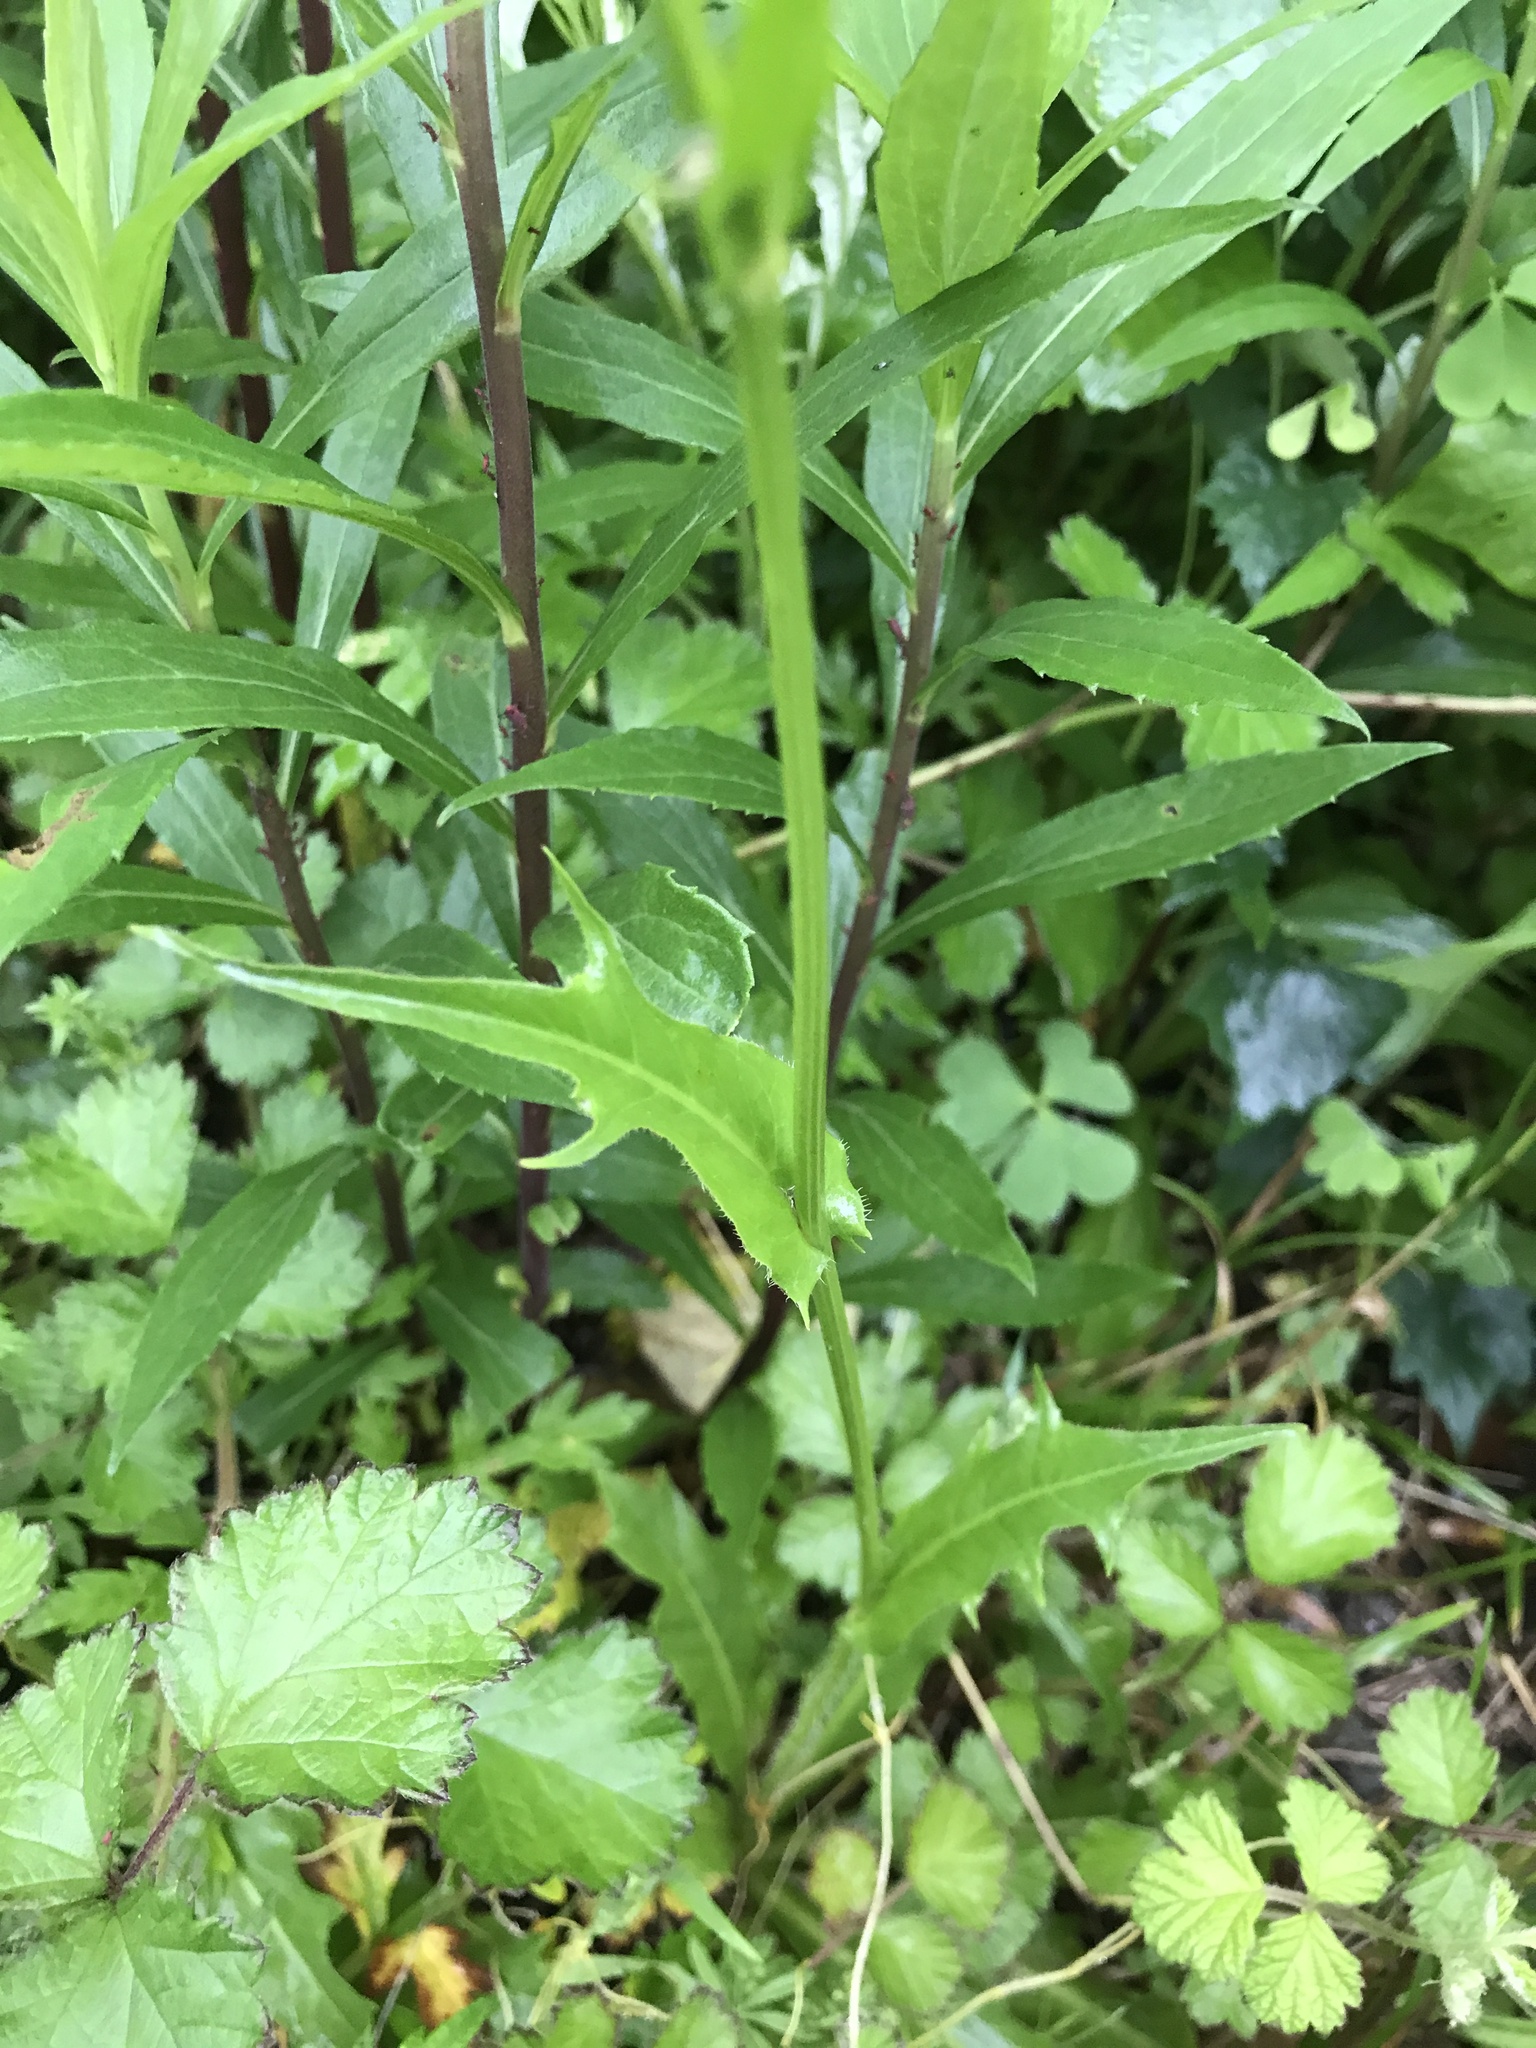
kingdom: Plantae
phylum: Tracheophyta
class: Magnoliopsida
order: Asterales
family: Asteraceae
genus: Hypochaeris
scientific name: Hypochaeris chillensis
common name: Brazilian cat's ear
